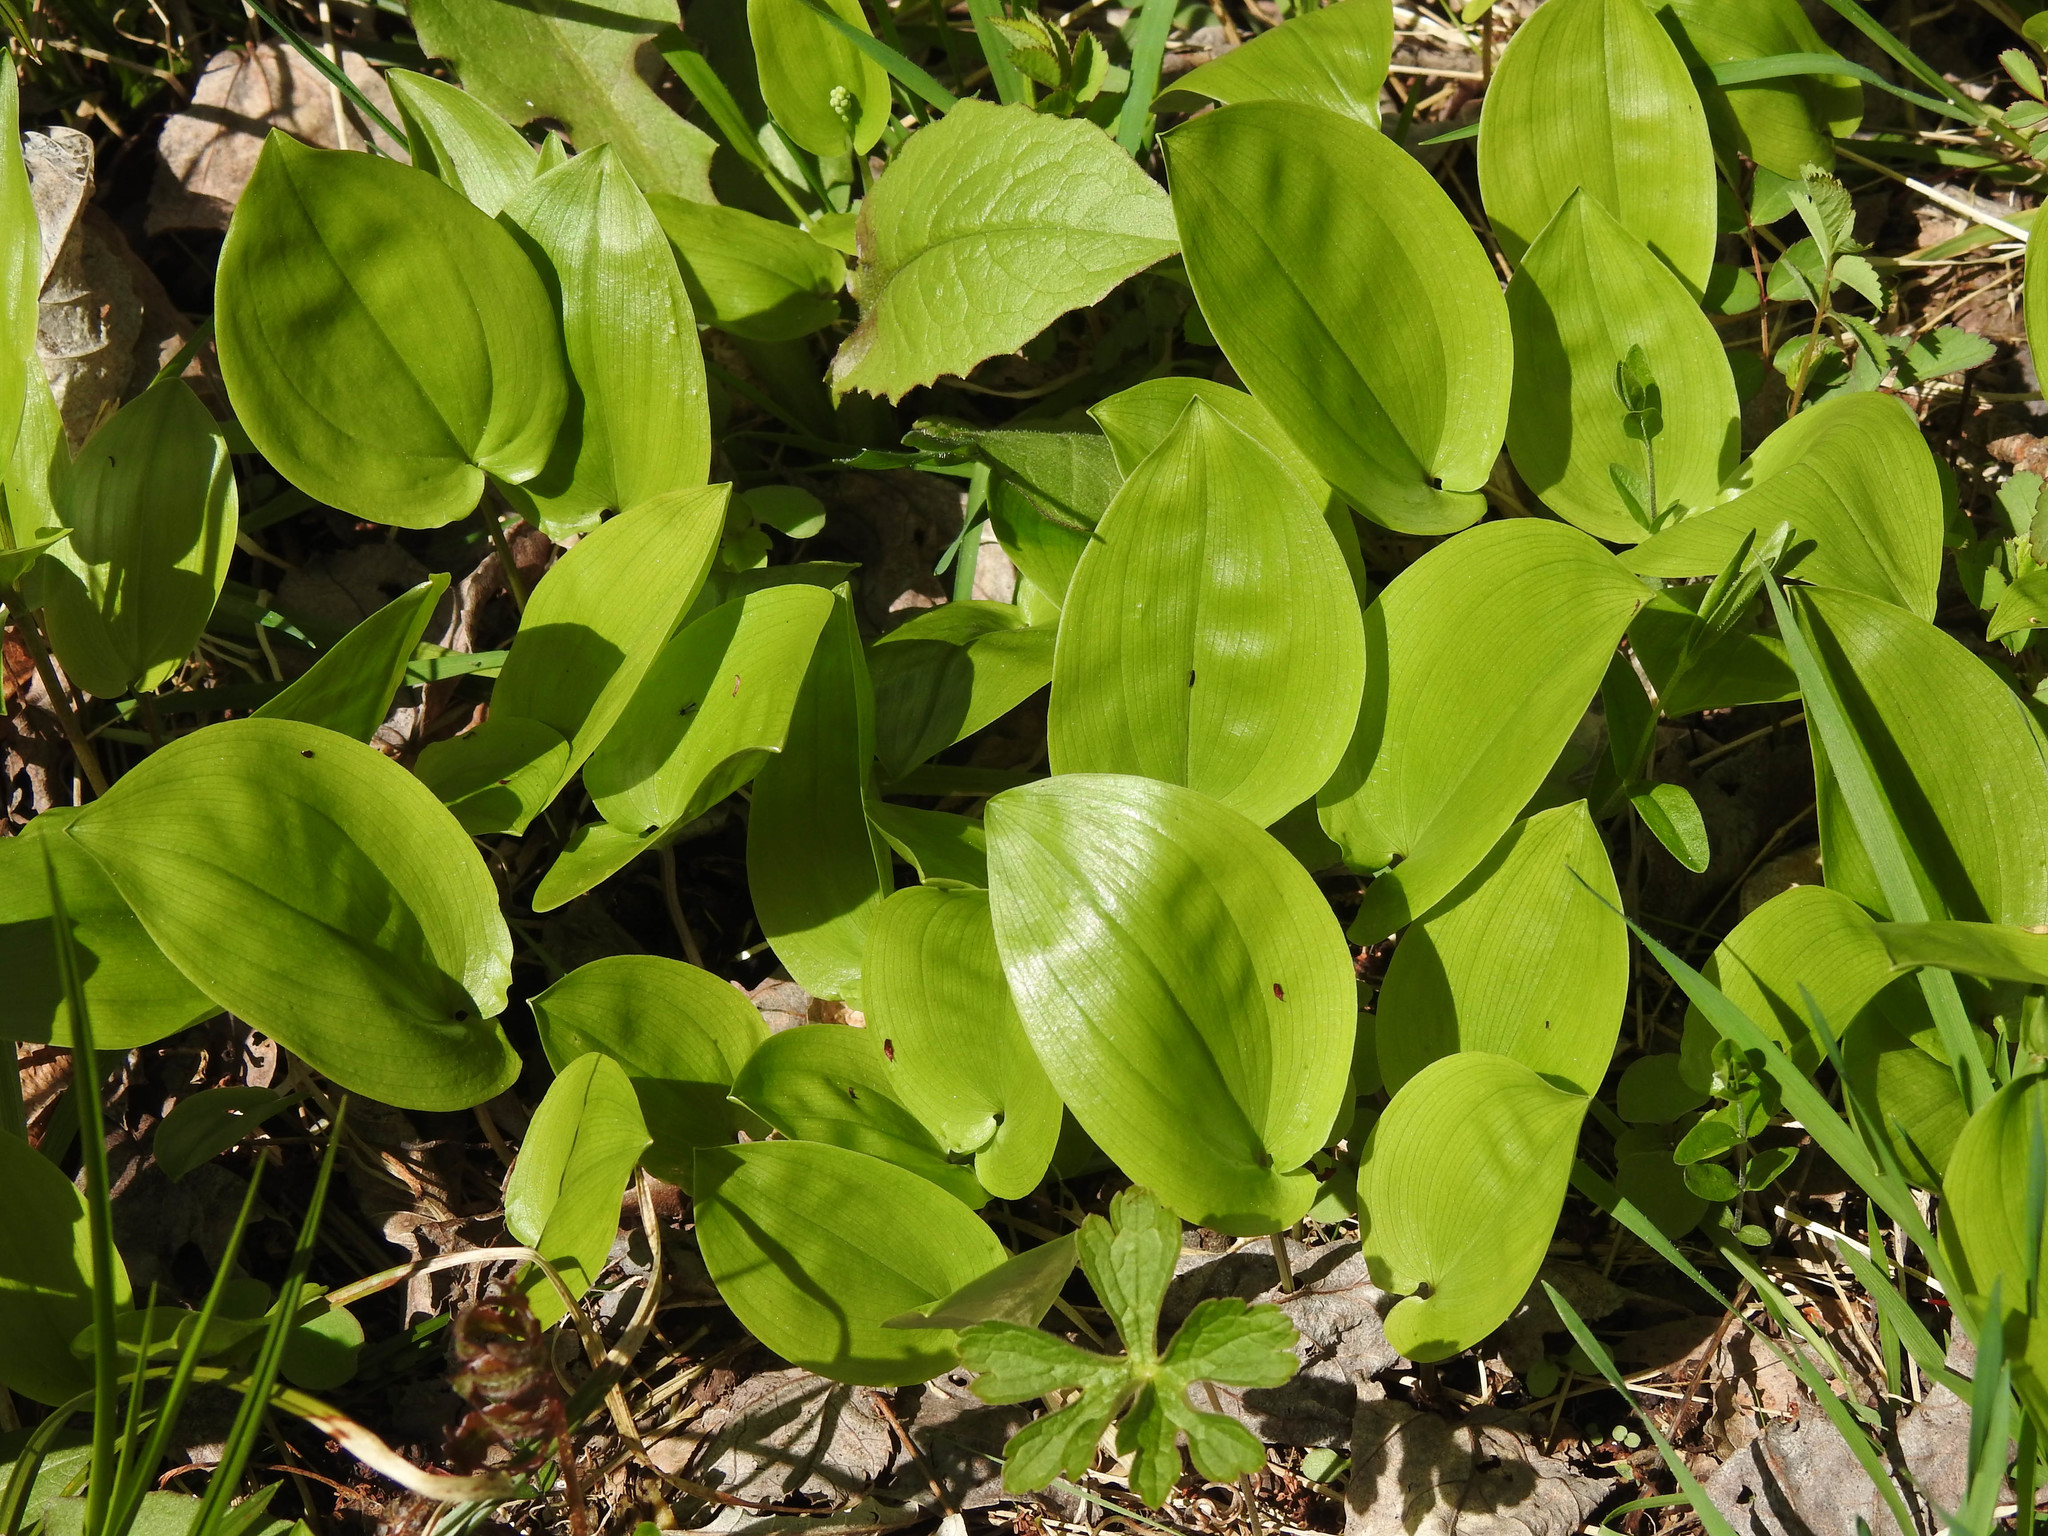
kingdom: Plantae
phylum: Tracheophyta
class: Liliopsida
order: Asparagales
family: Asparagaceae
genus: Maianthemum
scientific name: Maianthemum canadense
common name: False lily-of-the-valley
